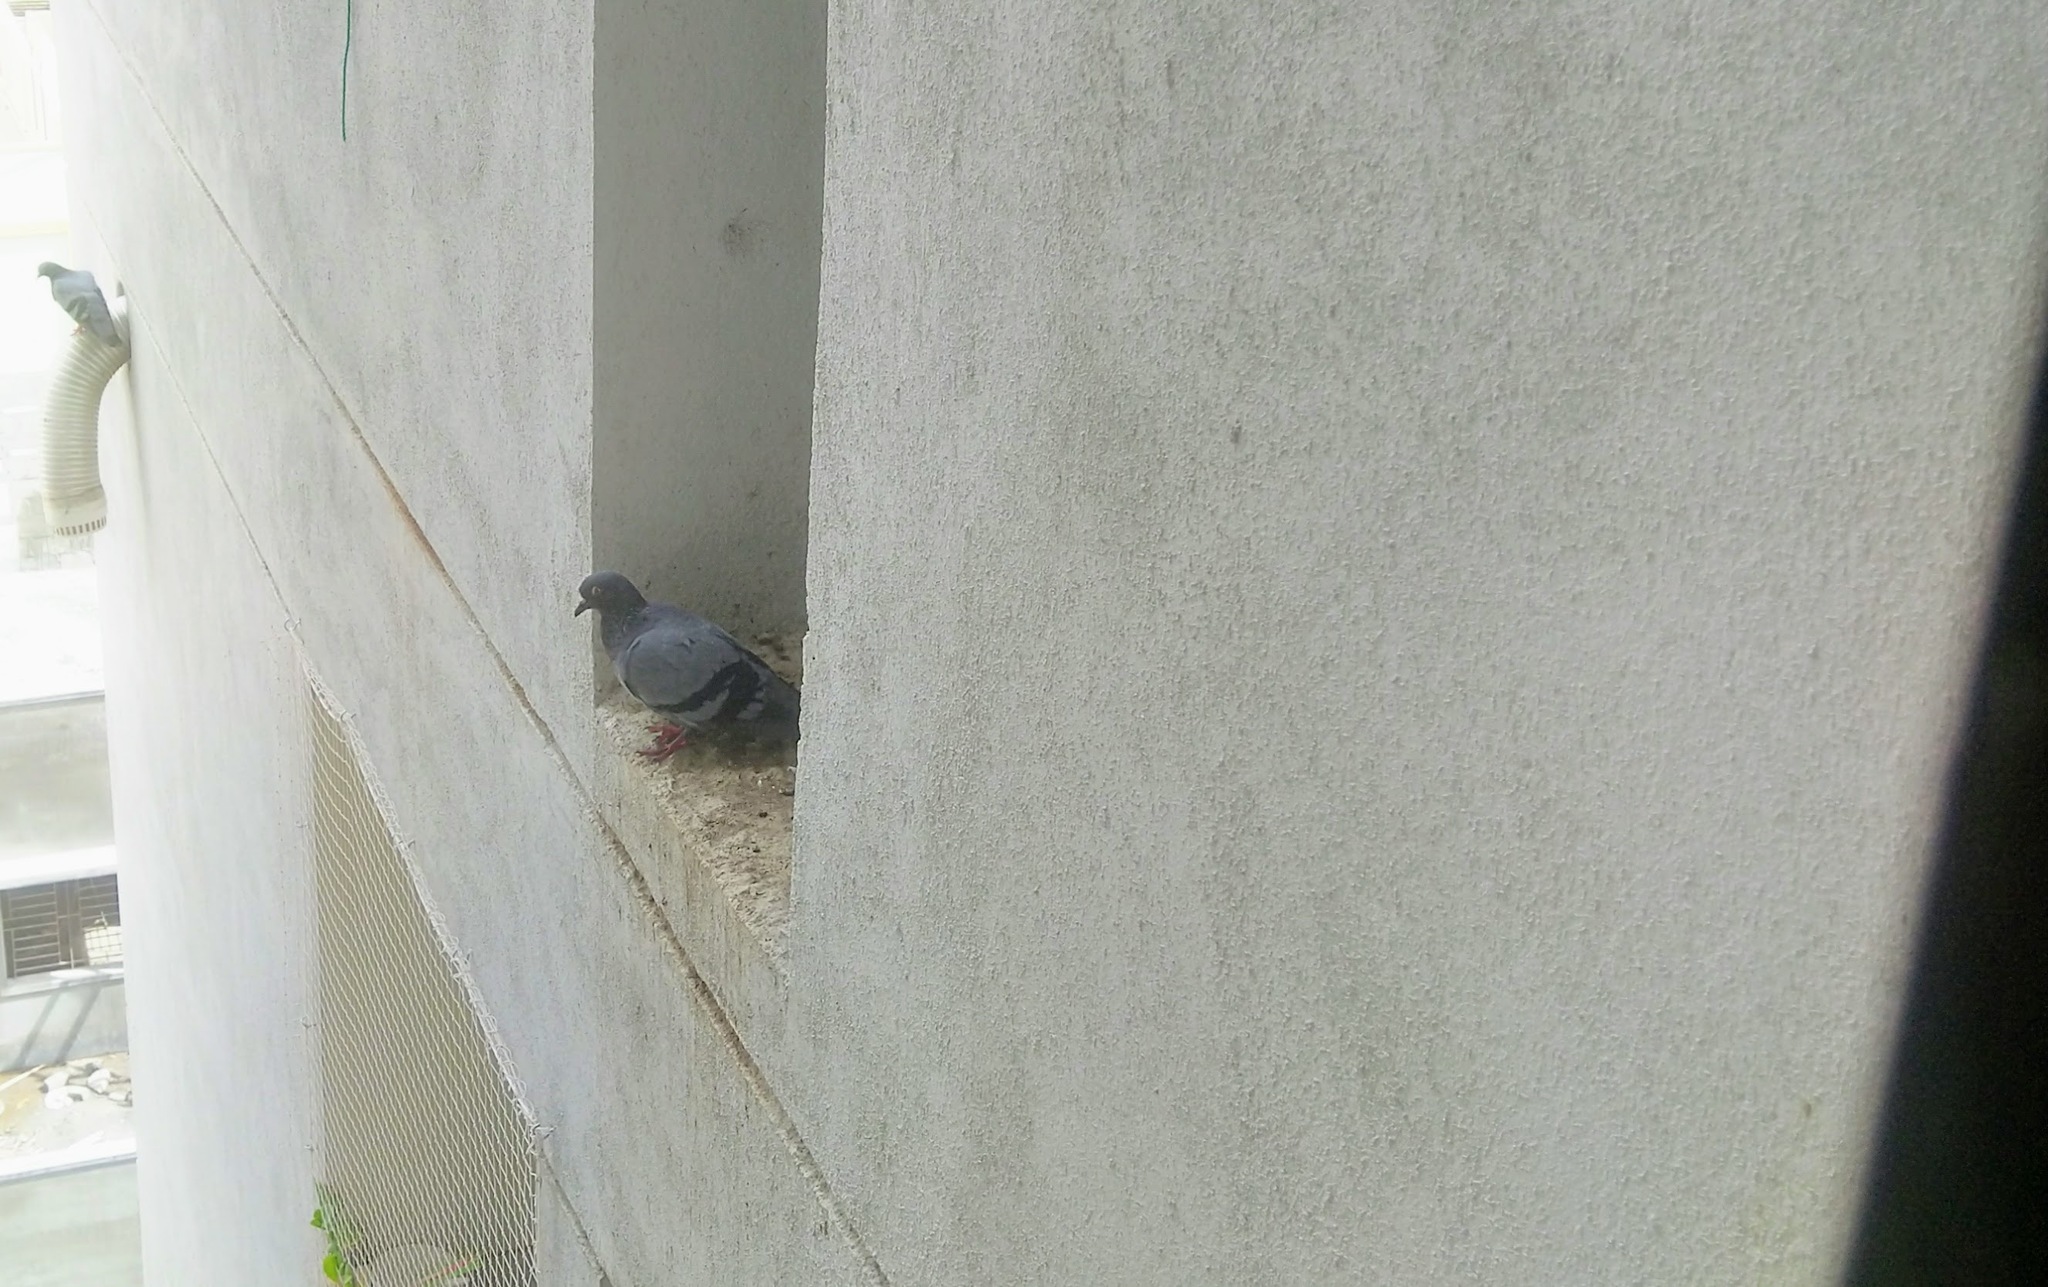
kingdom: Animalia
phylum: Chordata
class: Aves
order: Columbiformes
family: Columbidae
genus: Columba
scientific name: Columba livia
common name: Rock pigeon
